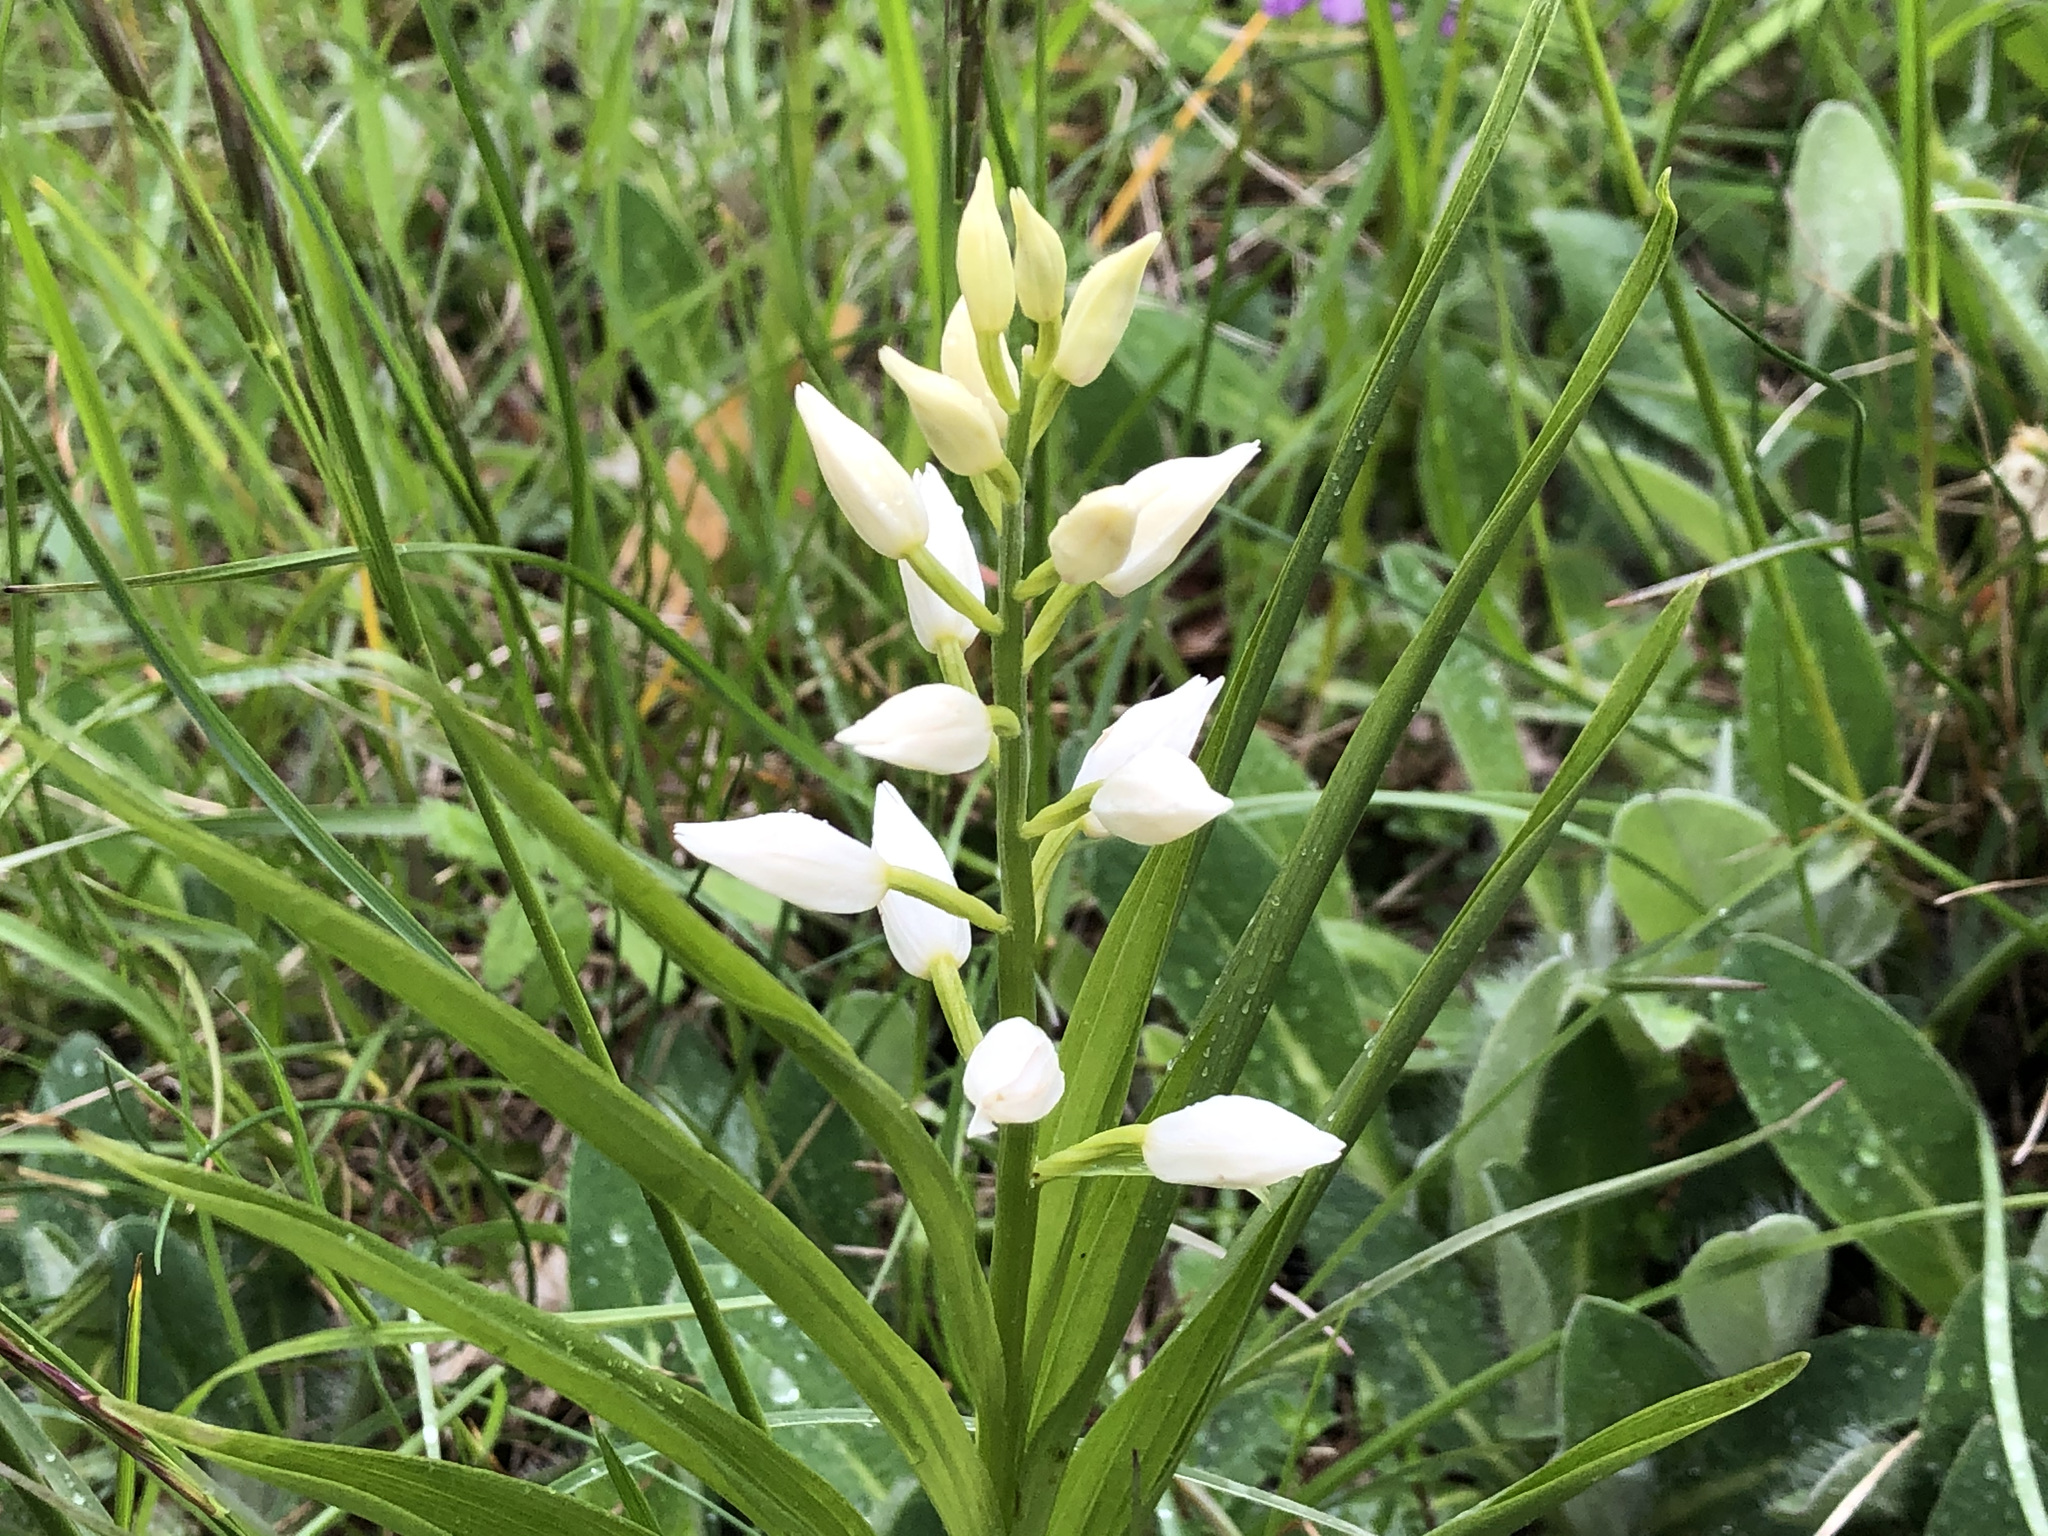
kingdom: Plantae
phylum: Tracheophyta
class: Liliopsida
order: Asparagales
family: Orchidaceae
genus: Cephalanthera
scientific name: Cephalanthera longifolia
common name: Narrow-leaved helleborine
